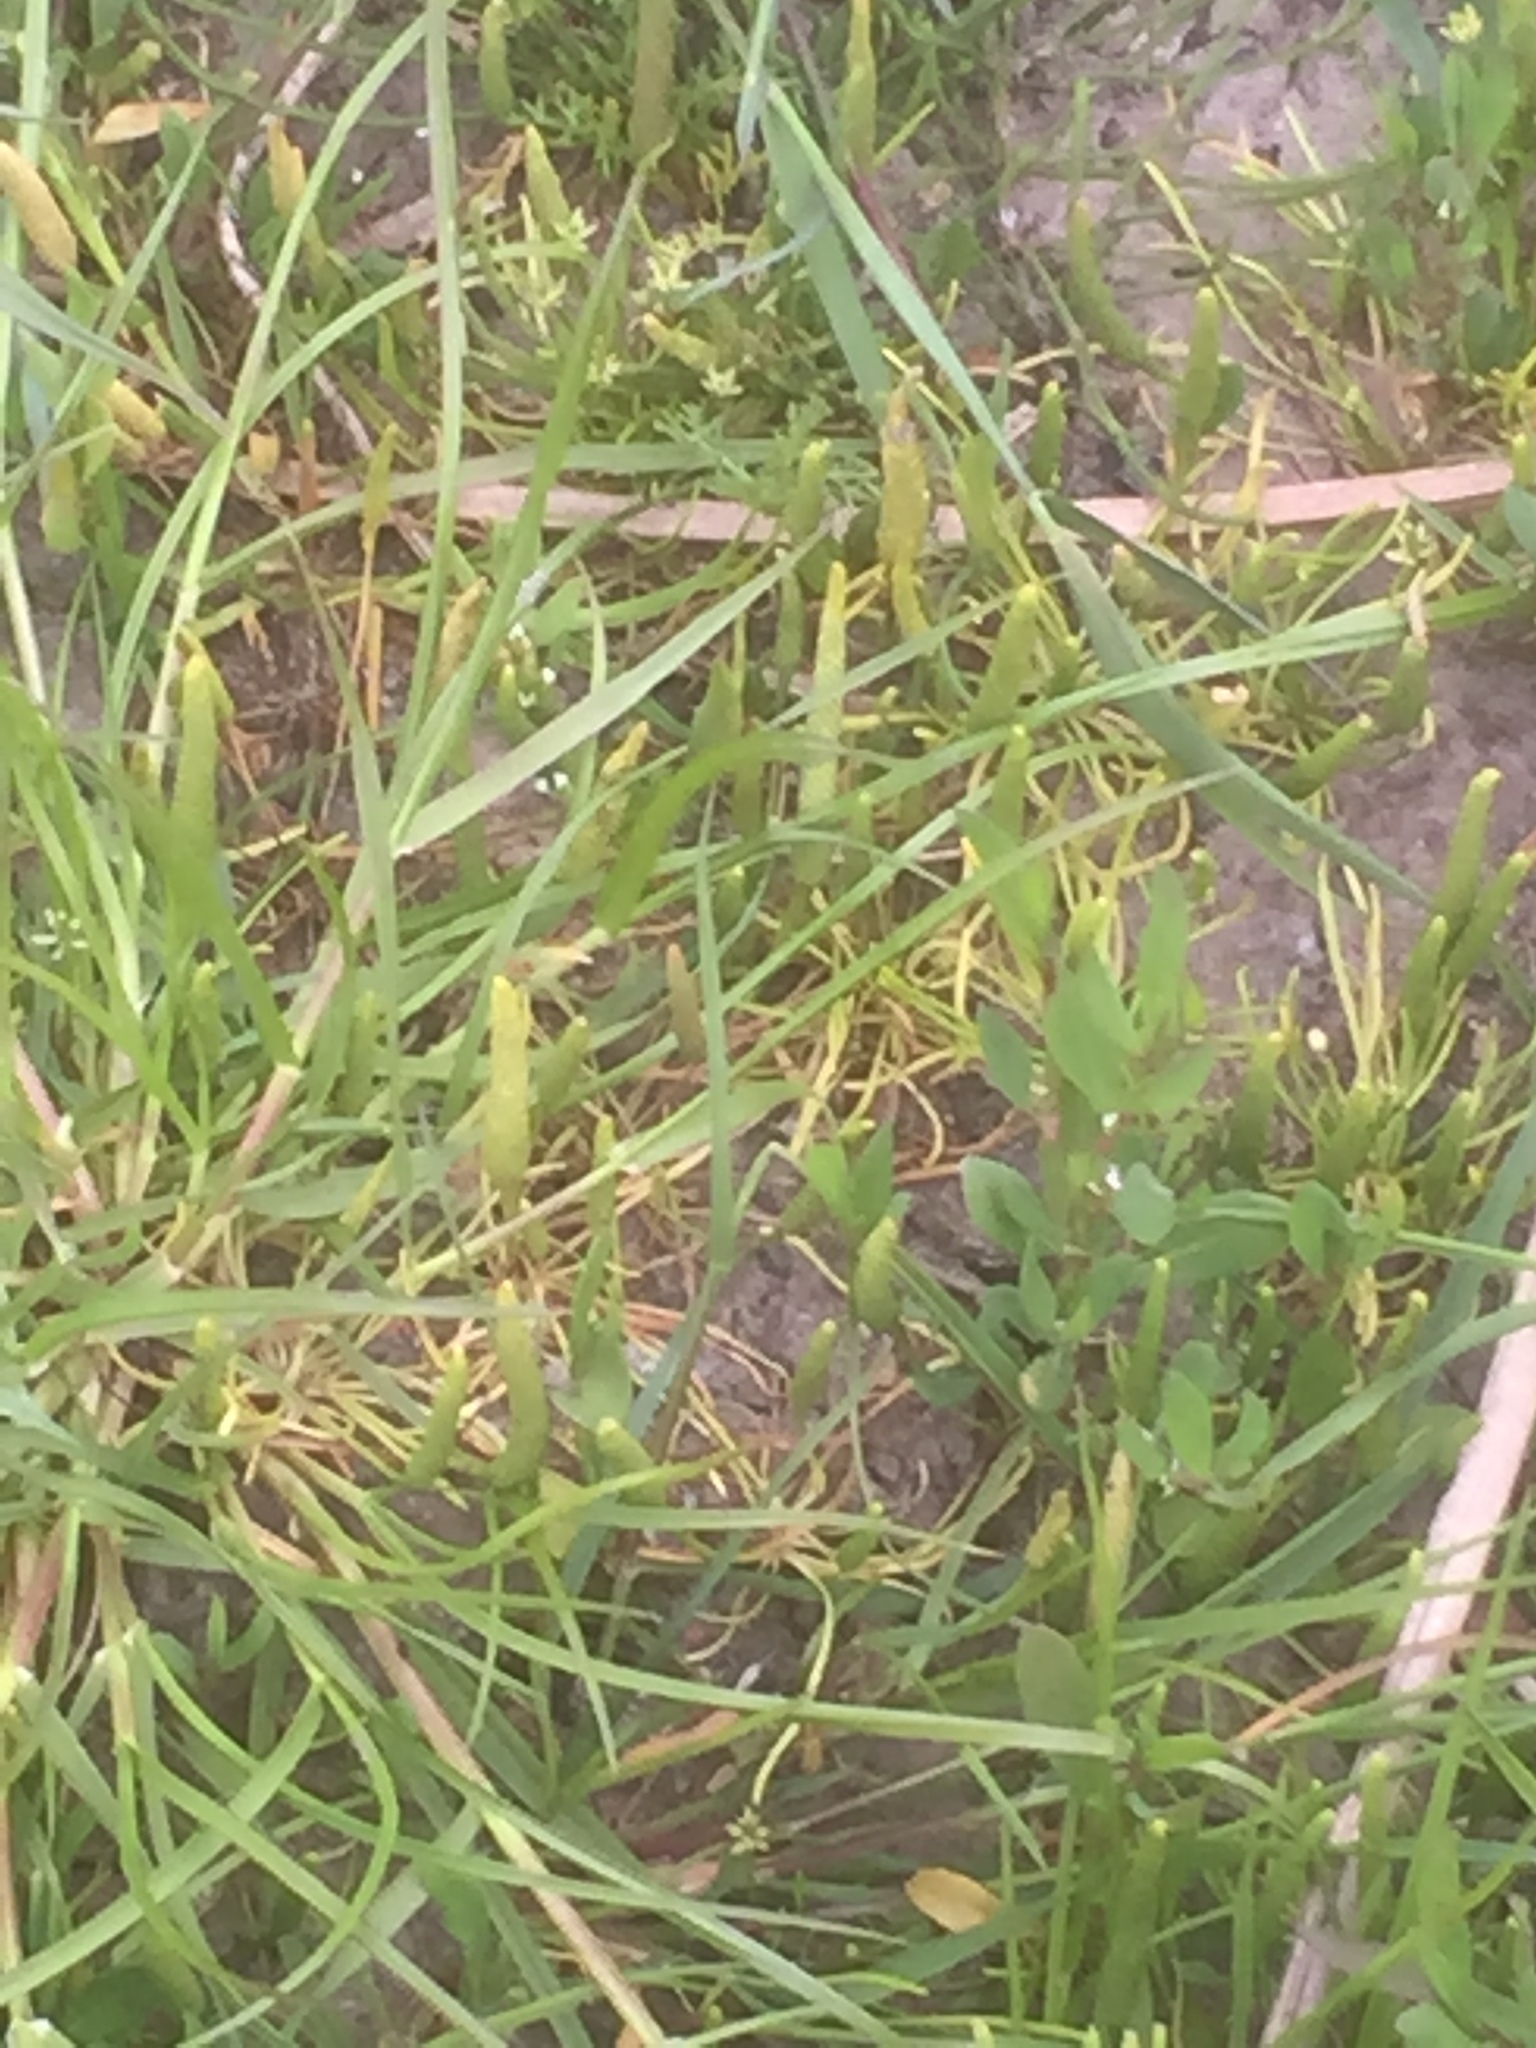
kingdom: Plantae
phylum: Tracheophyta
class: Magnoliopsida
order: Ranunculales
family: Ranunculaceae
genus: Myosurus
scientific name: Myosurus minimus
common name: Mousetail
